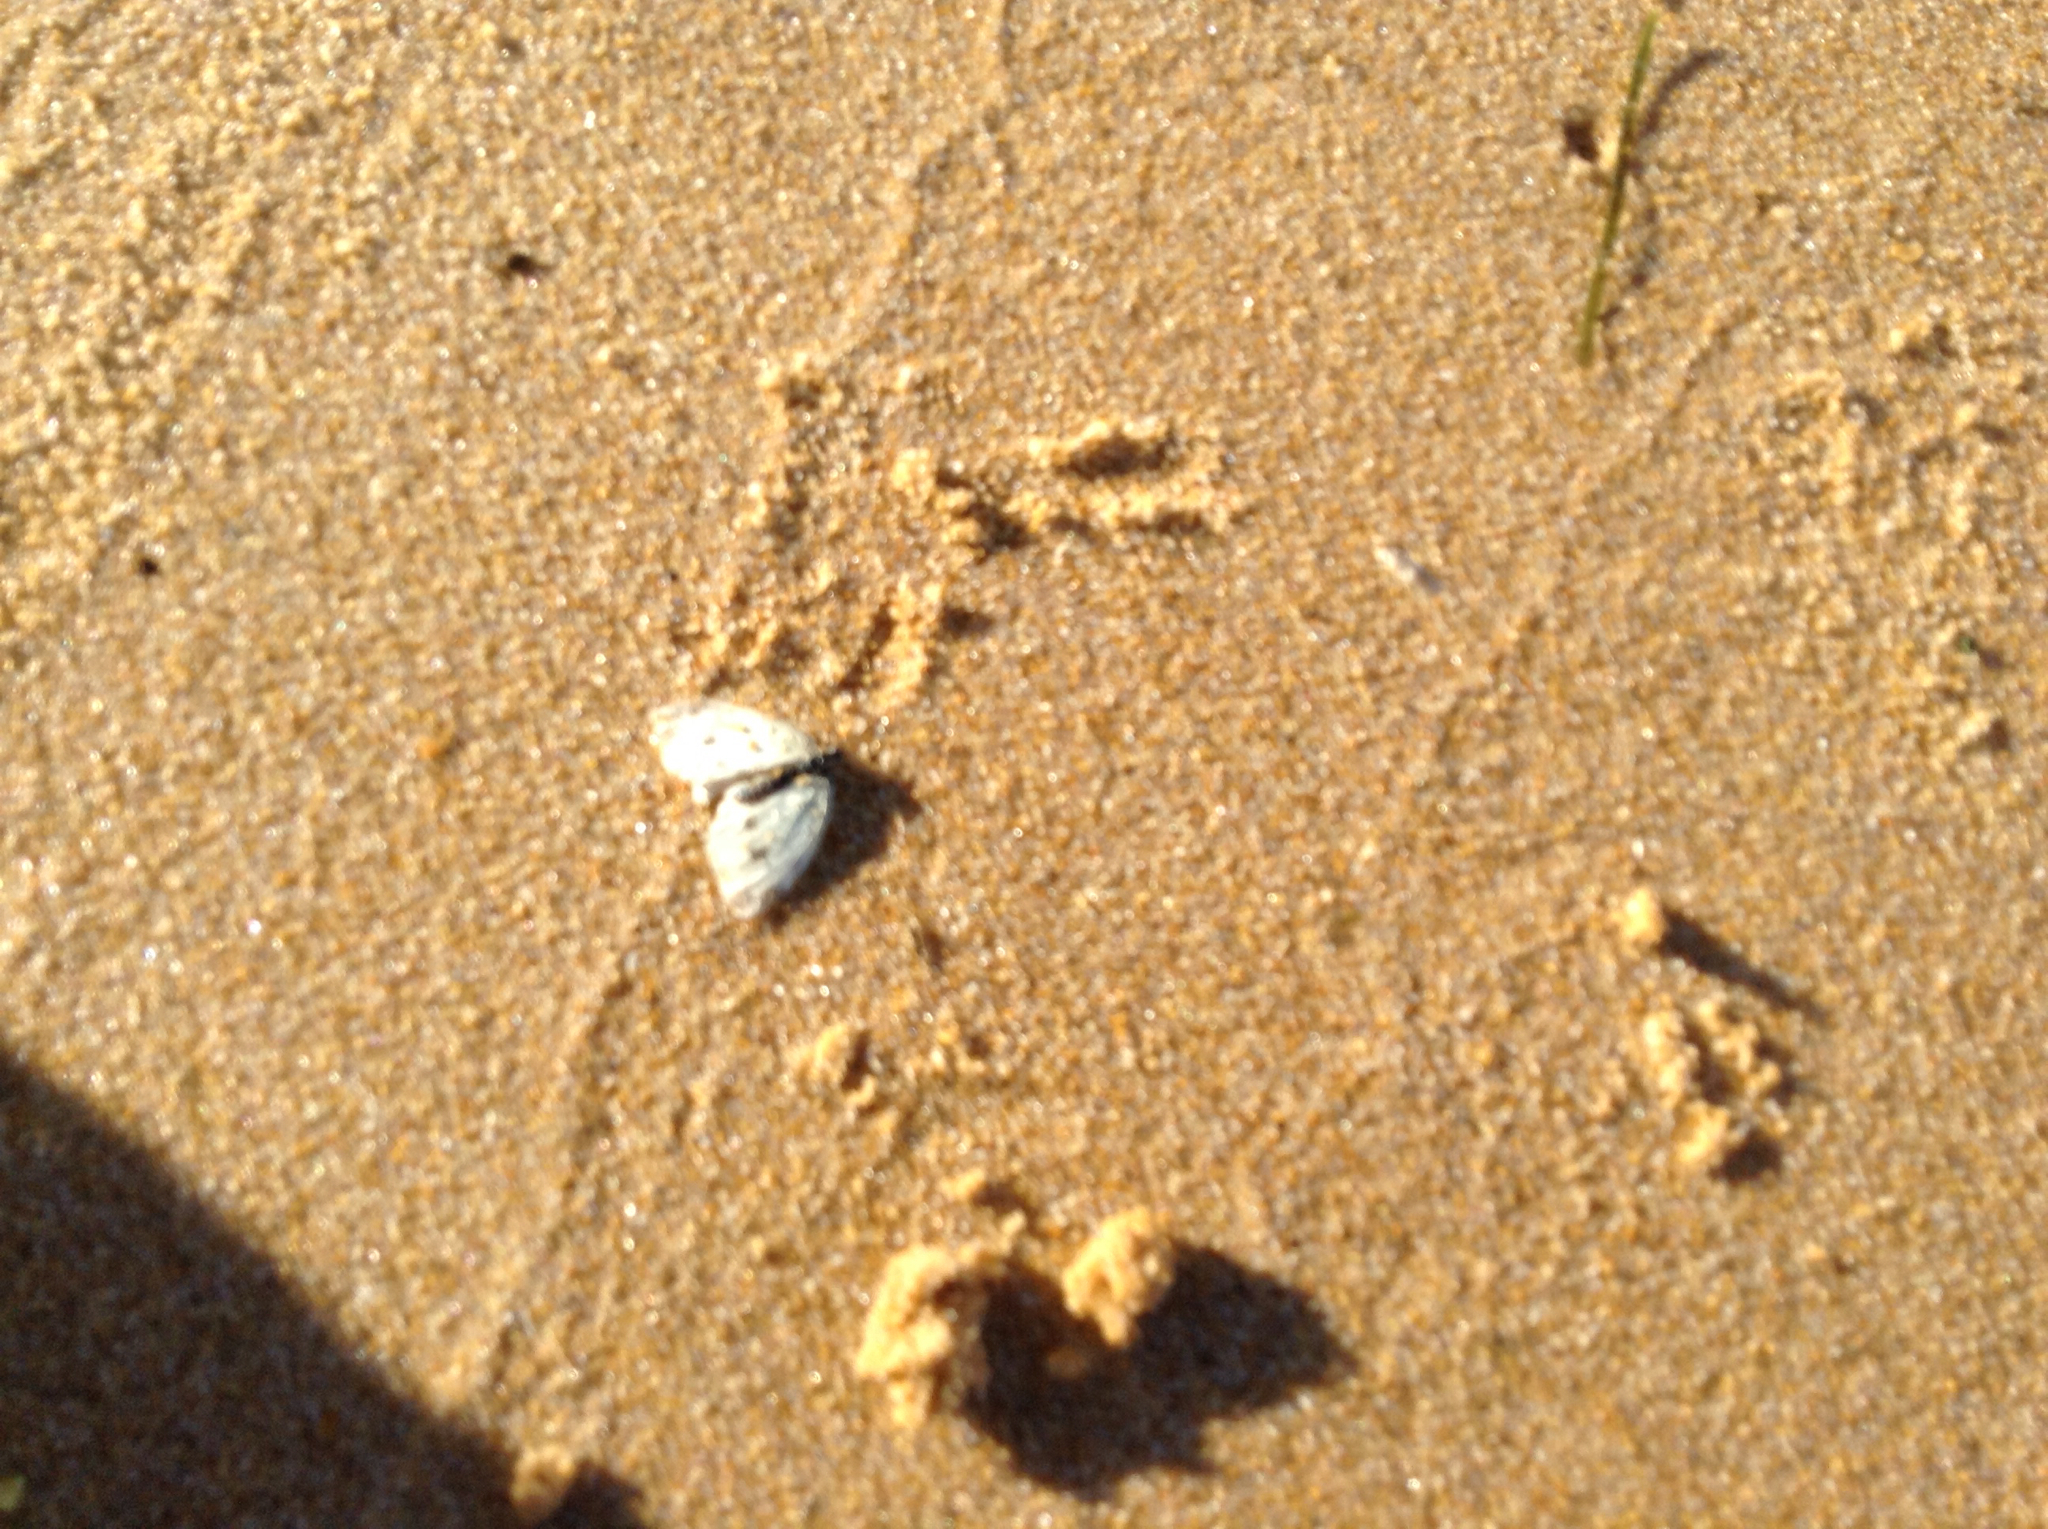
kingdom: Animalia
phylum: Arthropoda
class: Insecta
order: Lepidoptera
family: Pieridae
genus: Pieris
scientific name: Pieris rapae
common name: Small white
